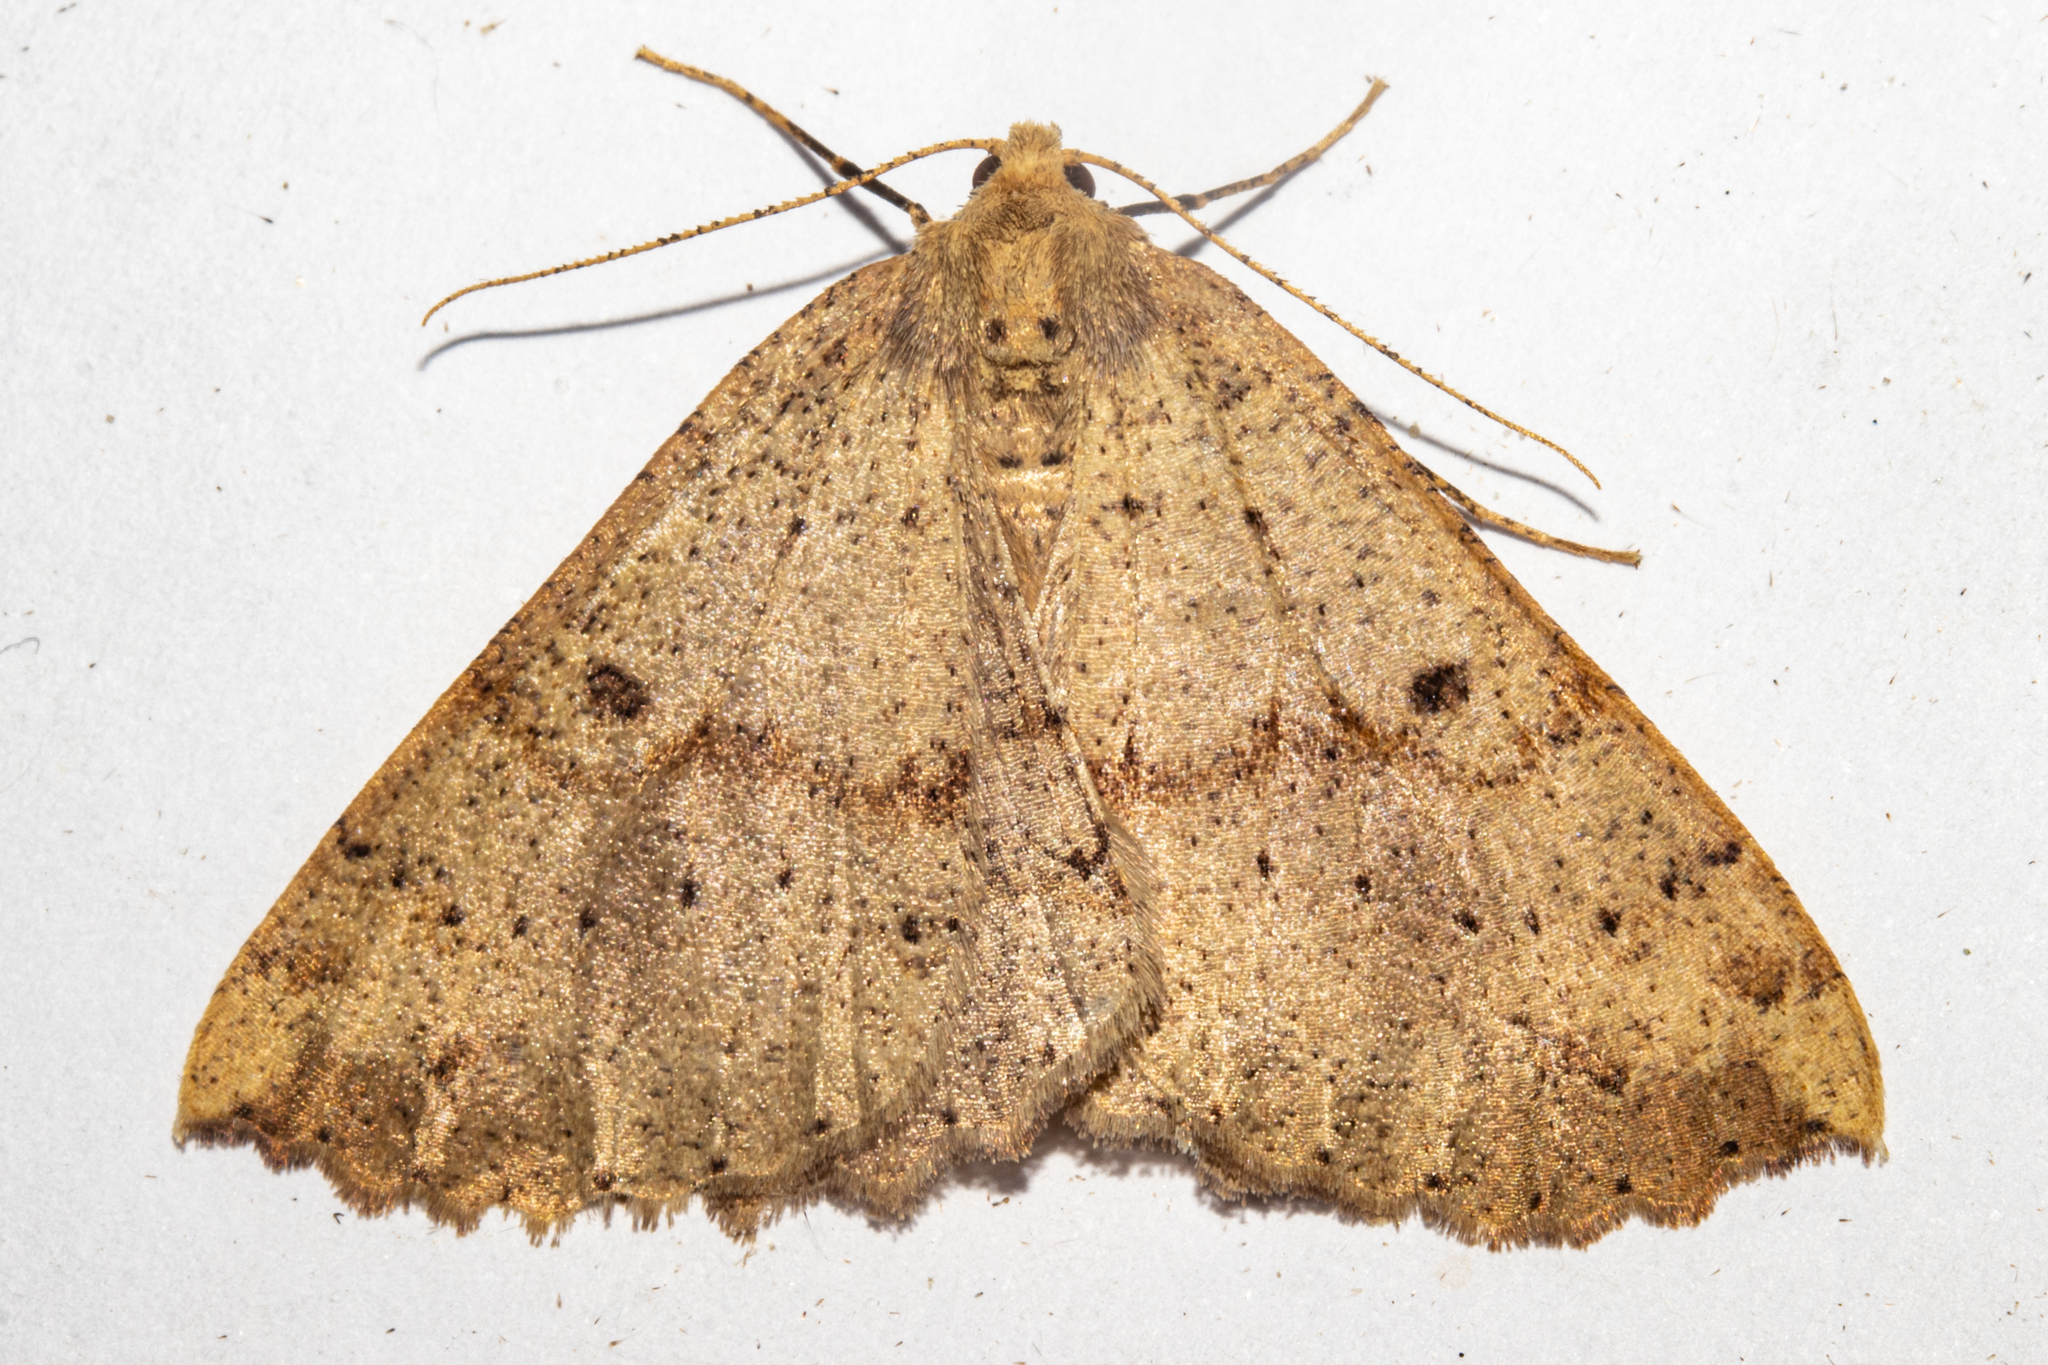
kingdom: Animalia
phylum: Arthropoda
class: Insecta
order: Lepidoptera
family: Geometridae
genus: Cleora
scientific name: Cleora scriptaria
